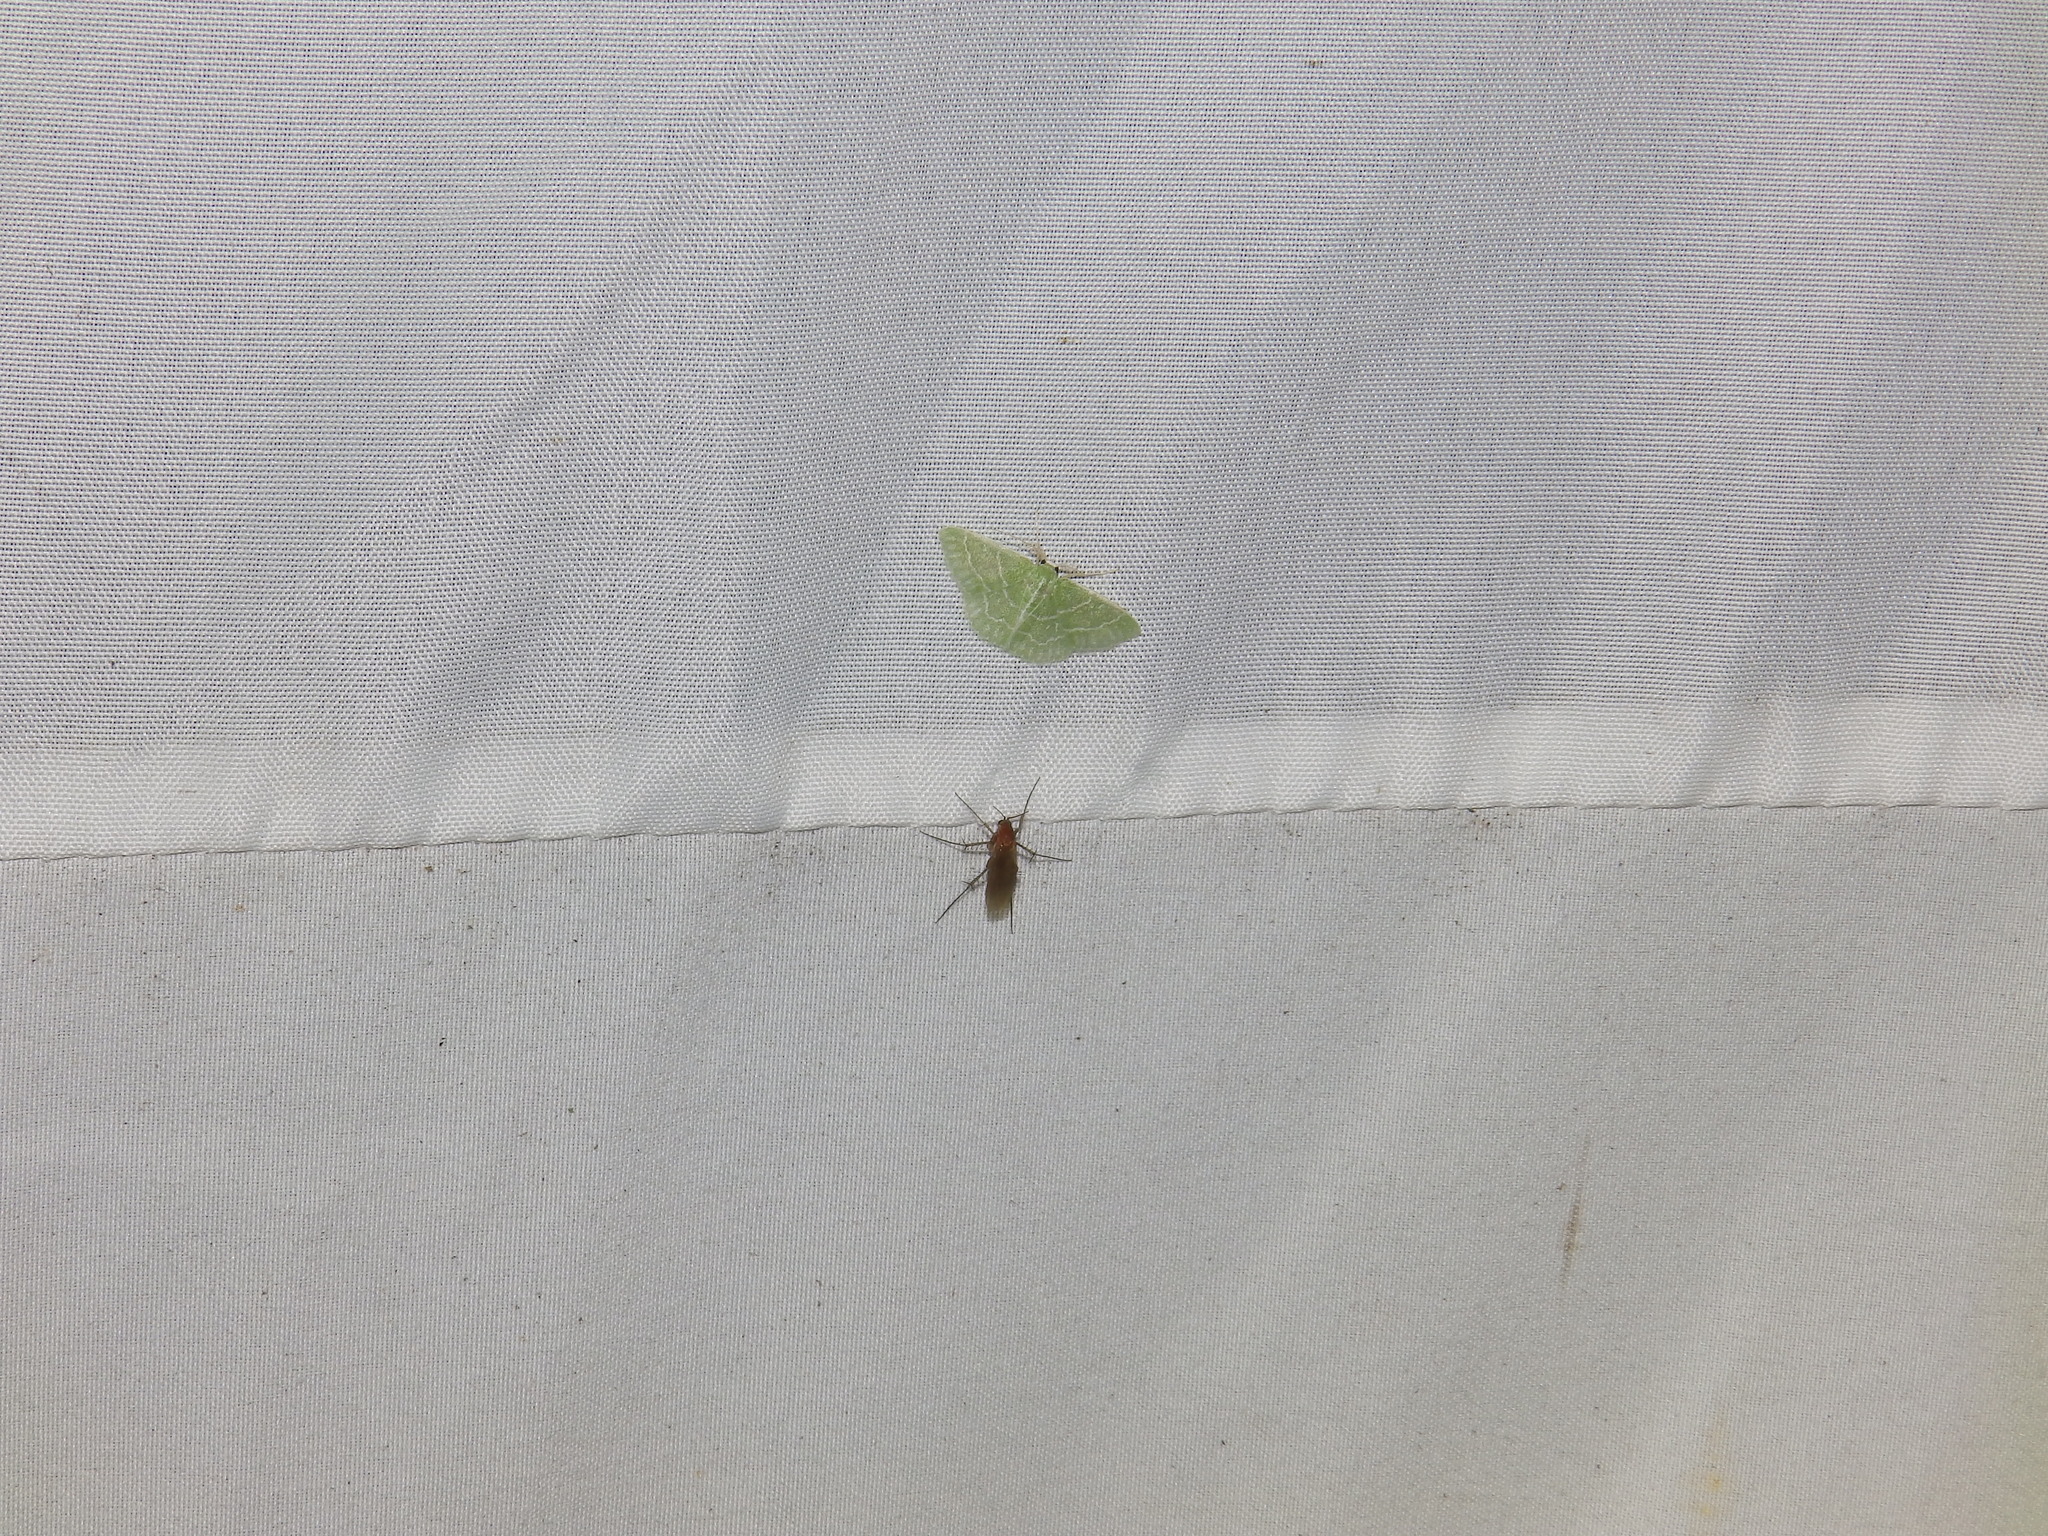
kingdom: Animalia
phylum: Arthropoda
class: Insecta
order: Lepidoptera
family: Geometridae
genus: Synchlora
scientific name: Synchlora aerata
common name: Wavy-lined emerald
